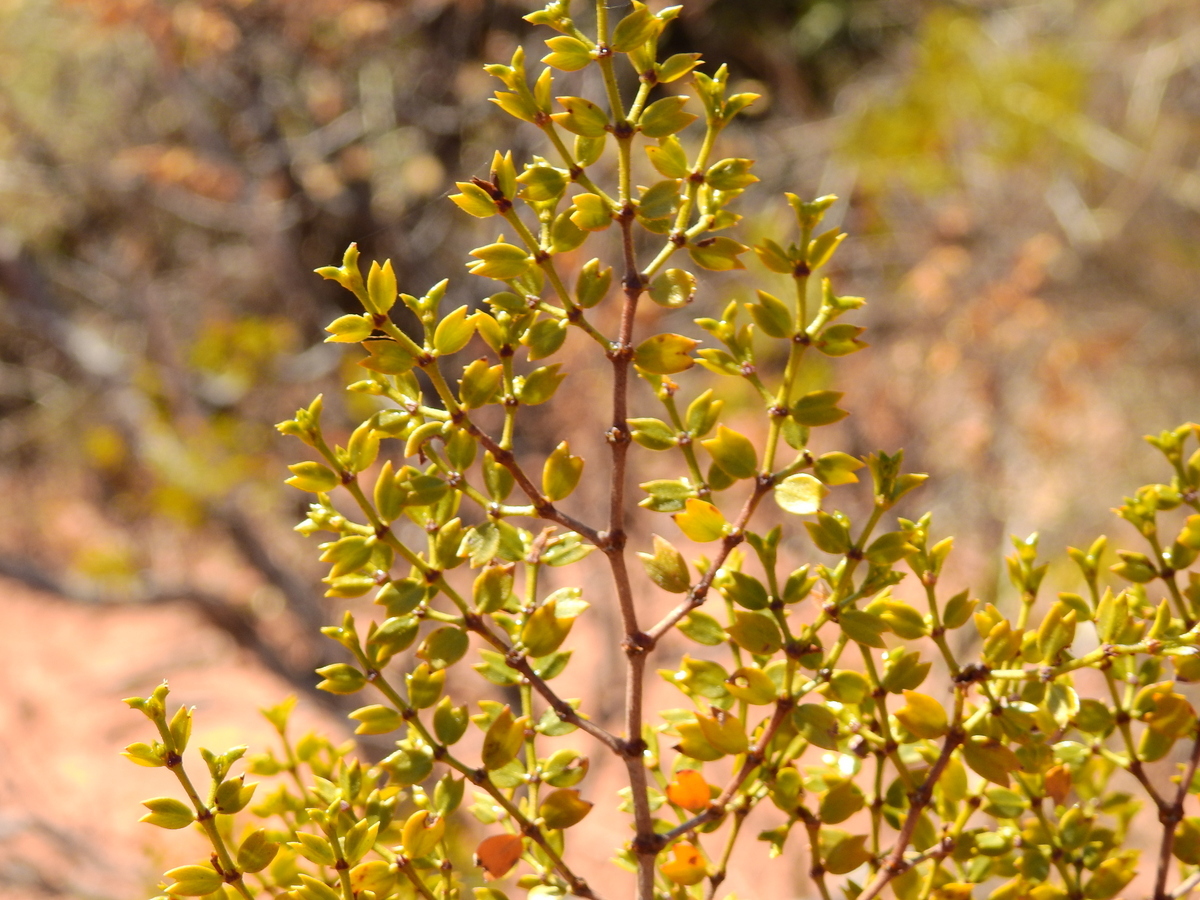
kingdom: Plantae
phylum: Tracheophyta
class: Magnoliopsida
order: Zygophyllales
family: Zygophyllaceae
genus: Larrea
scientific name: Larrea cuneifolia
